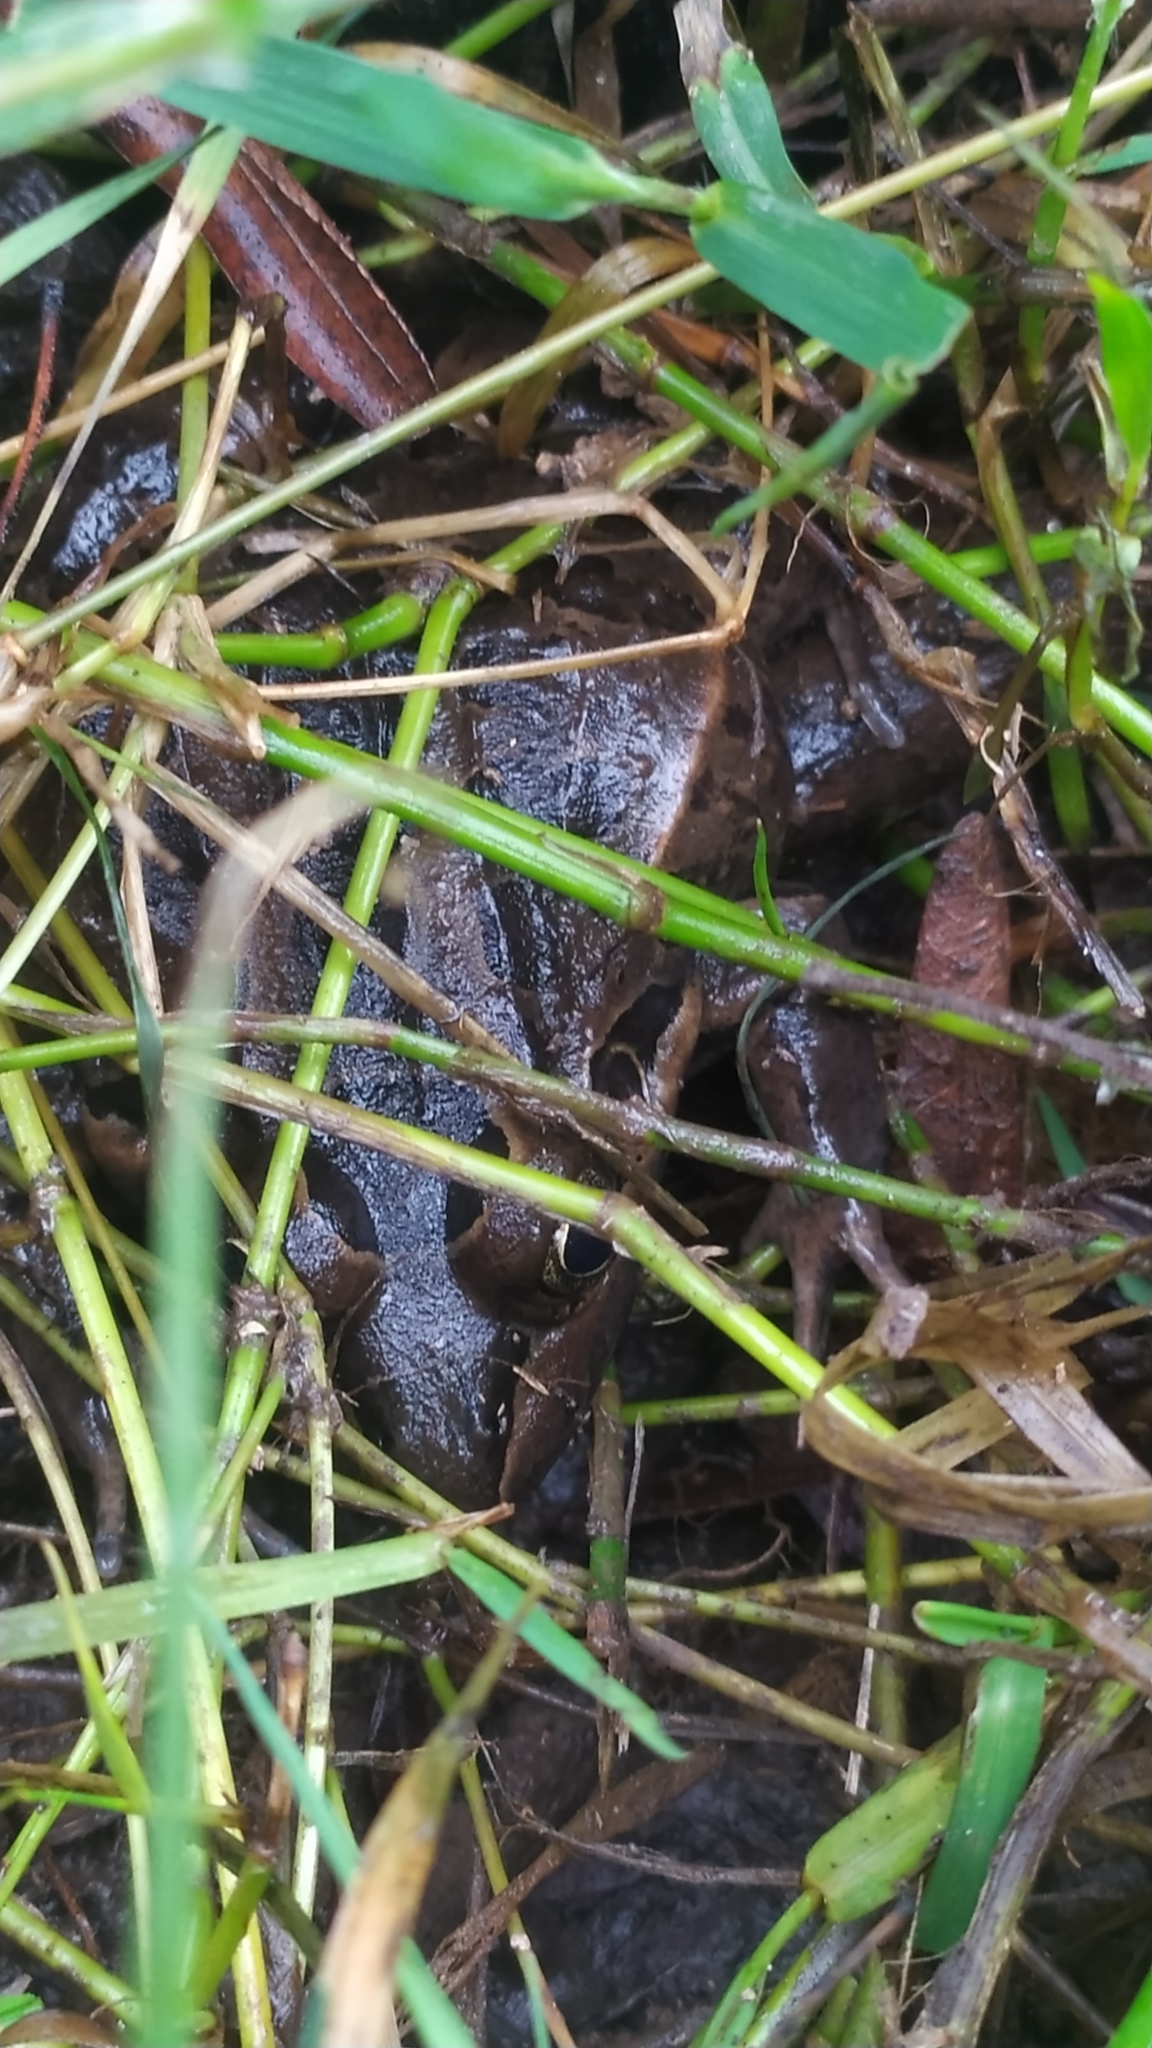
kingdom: Animalia
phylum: Chordata
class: Amphibia
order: Anura
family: Leptodactylidae
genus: Leptodactylus
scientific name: Leptodactylus luctator
